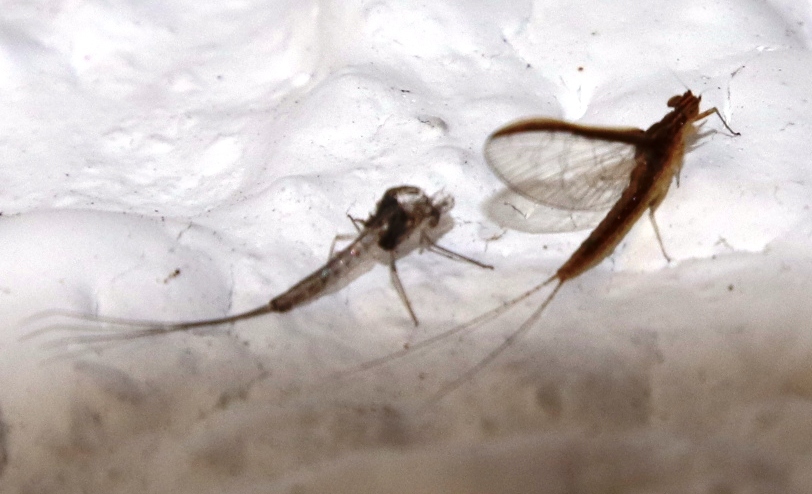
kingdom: Animalia
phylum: Arthropoda
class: Insecta
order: Ephemeroptera
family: Baetidae
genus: Cloeon
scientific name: Cloeon perkinsi
